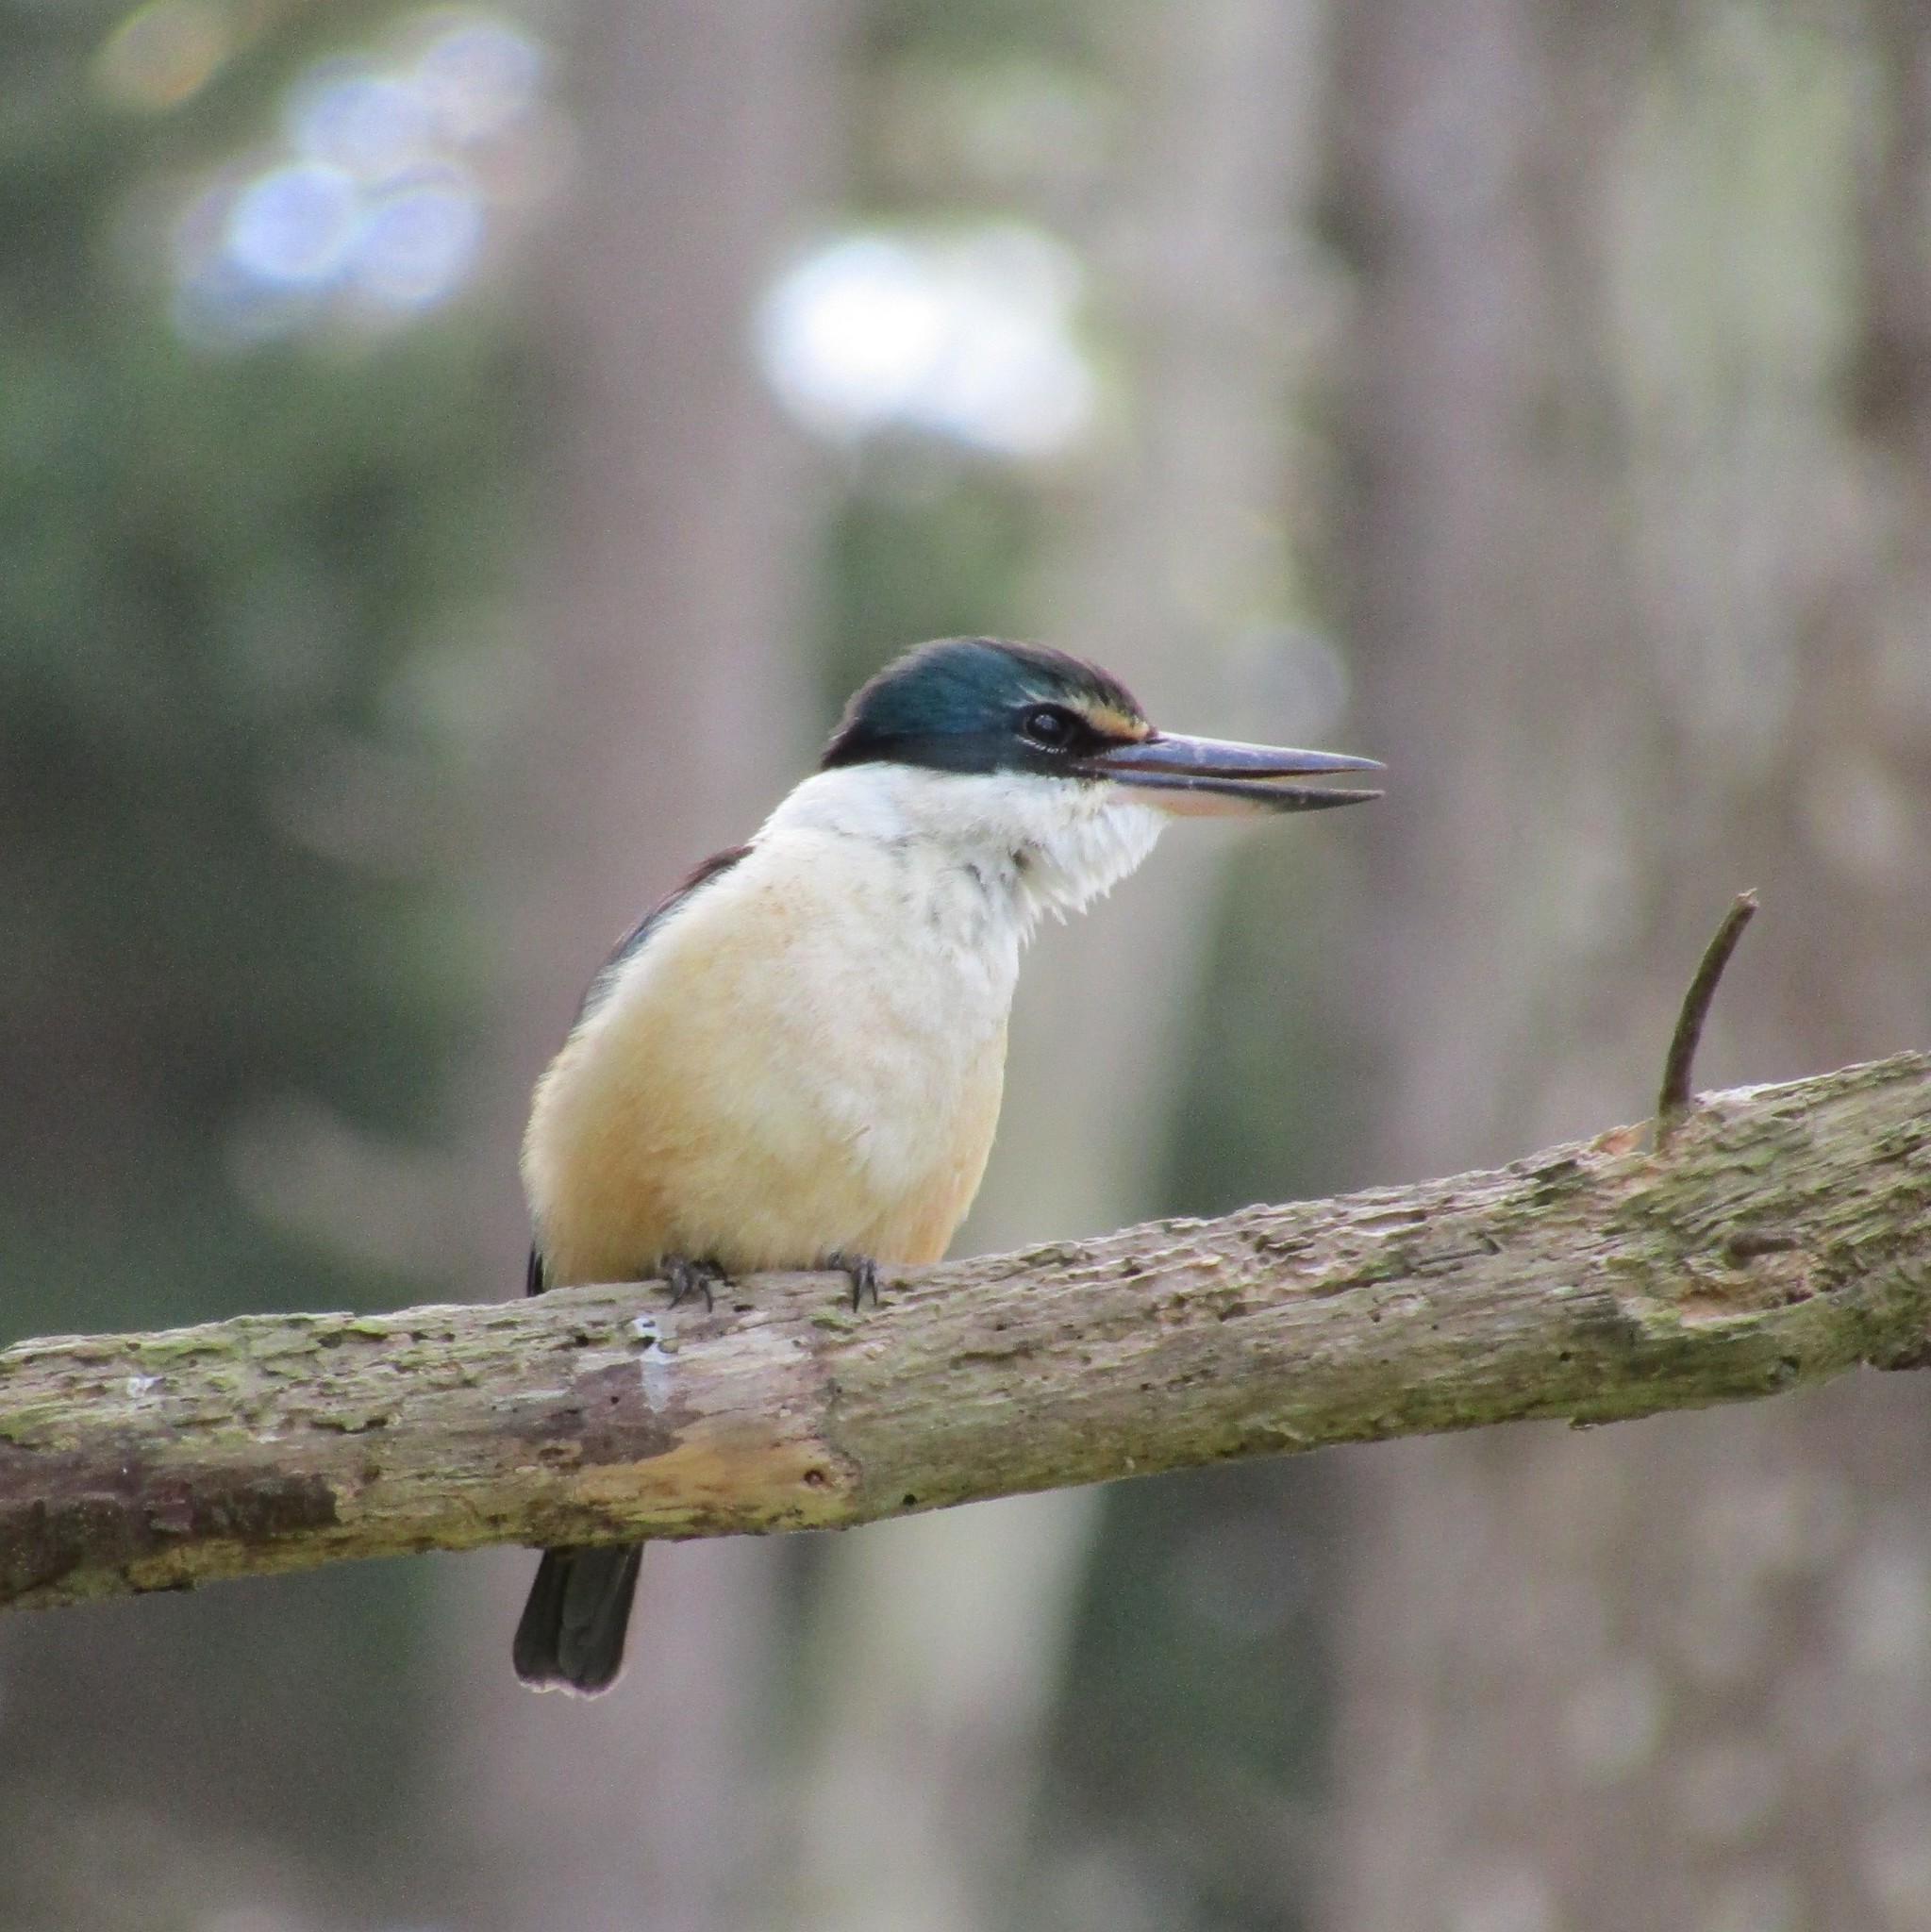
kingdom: Animalia
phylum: Chordata
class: Aves
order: Coraciiformes
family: Alcedinidae
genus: Todiramphus
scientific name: Todiramphus sanctus
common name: Sacred kingfisher
